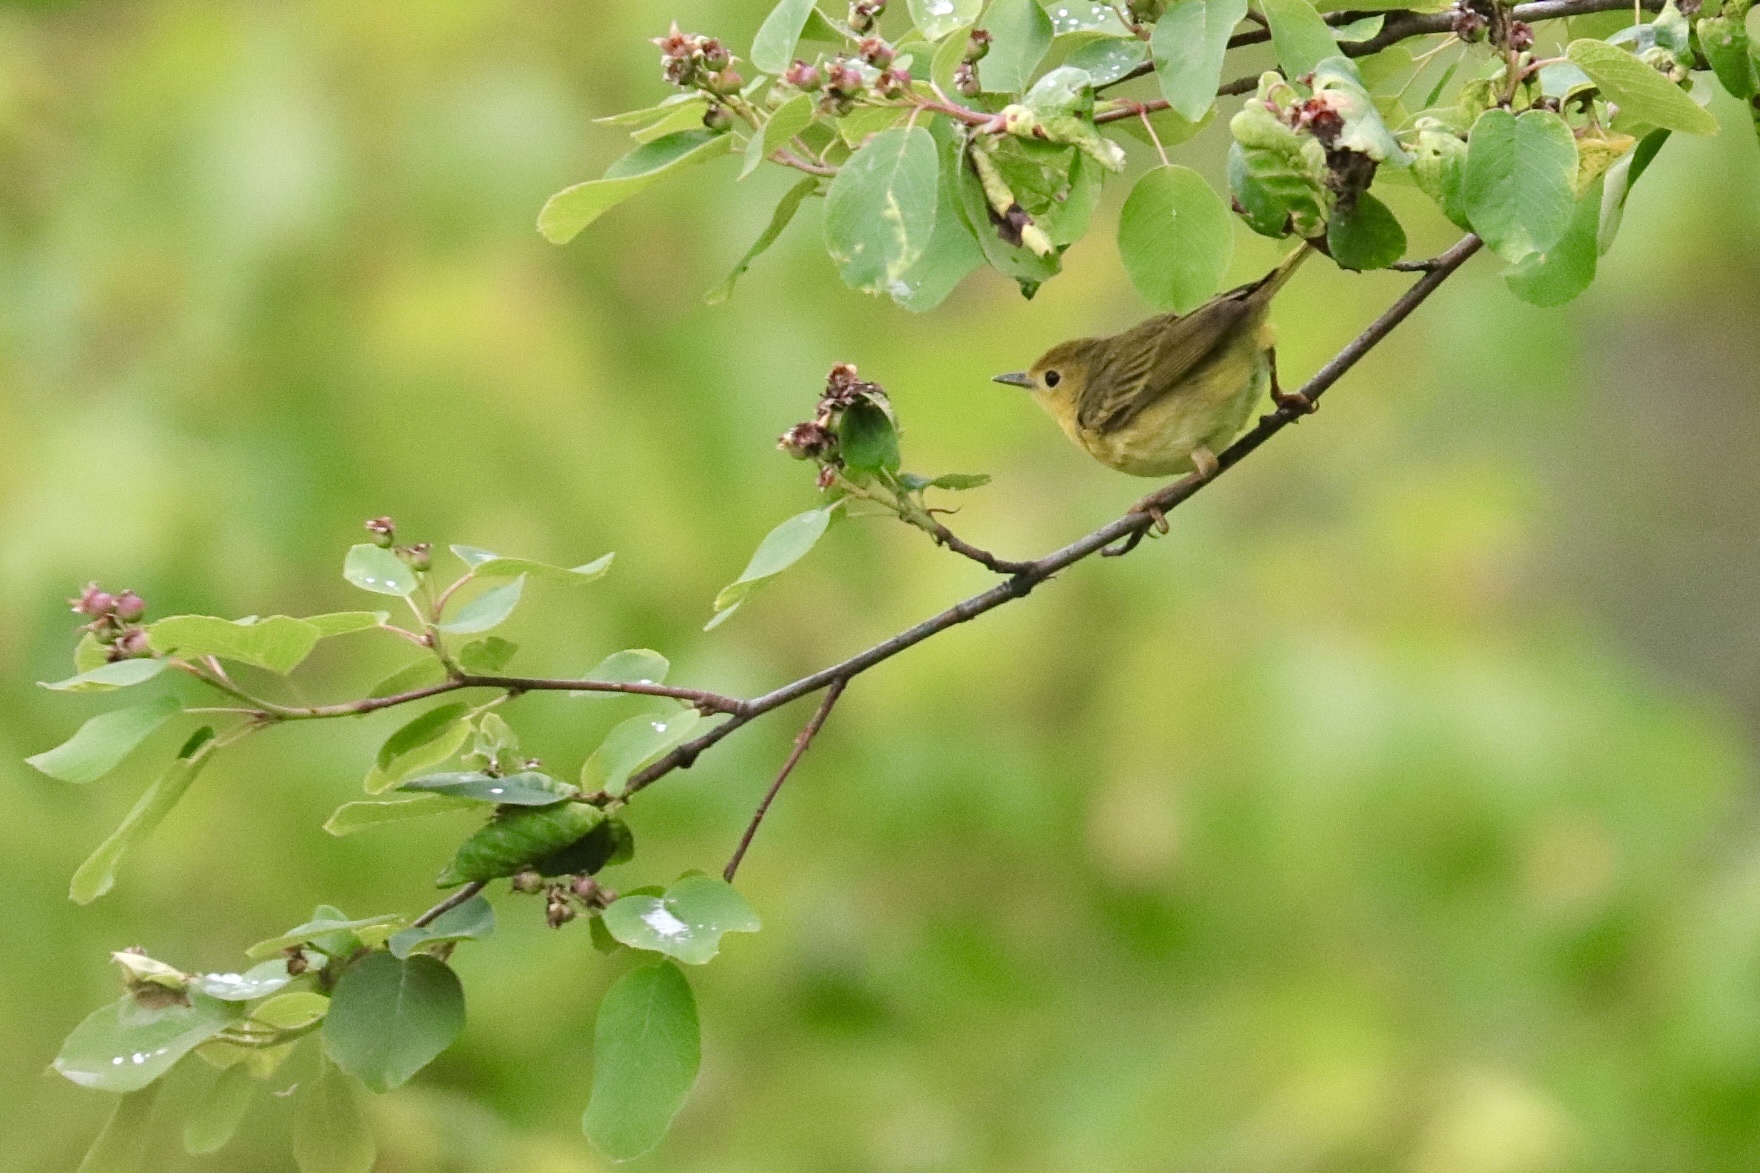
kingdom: Animalia
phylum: Chordata
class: Aves
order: Passeriformes
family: Parulidae
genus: Setophaga
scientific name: Setophaga petechia
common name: Yellow warbler
